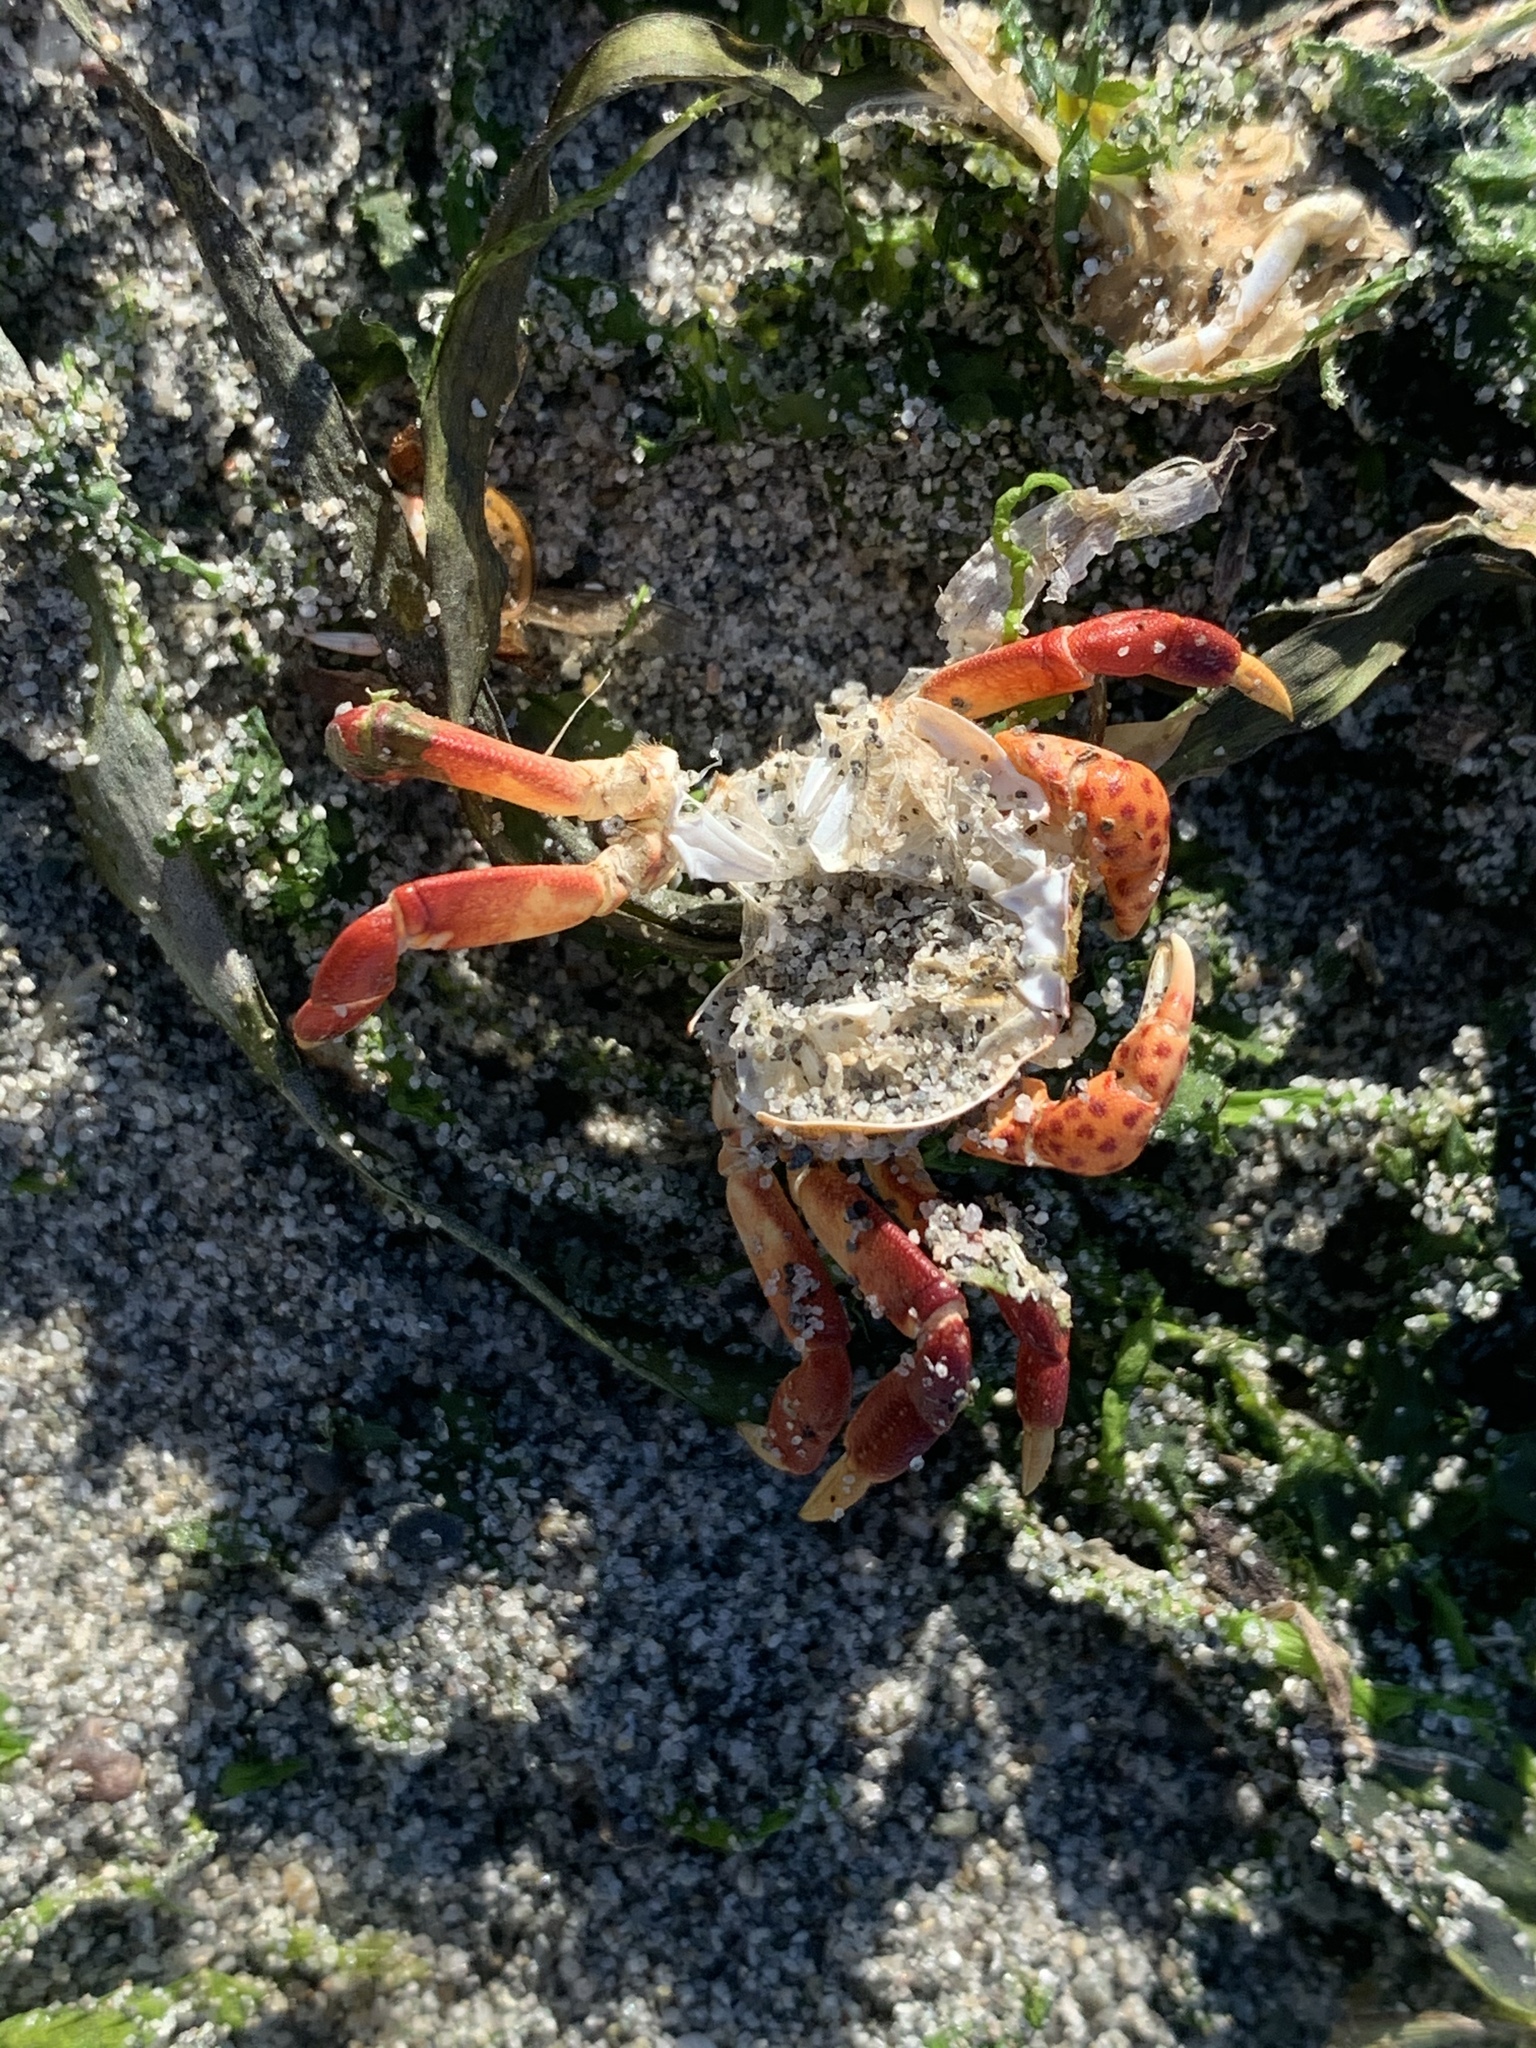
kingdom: Animalia
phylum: Arthropoda
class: Malacostraca
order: Decapoda
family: Varunidae
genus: Hemigrapsus
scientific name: Hemigrapsus nudus
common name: Purple shore crab
